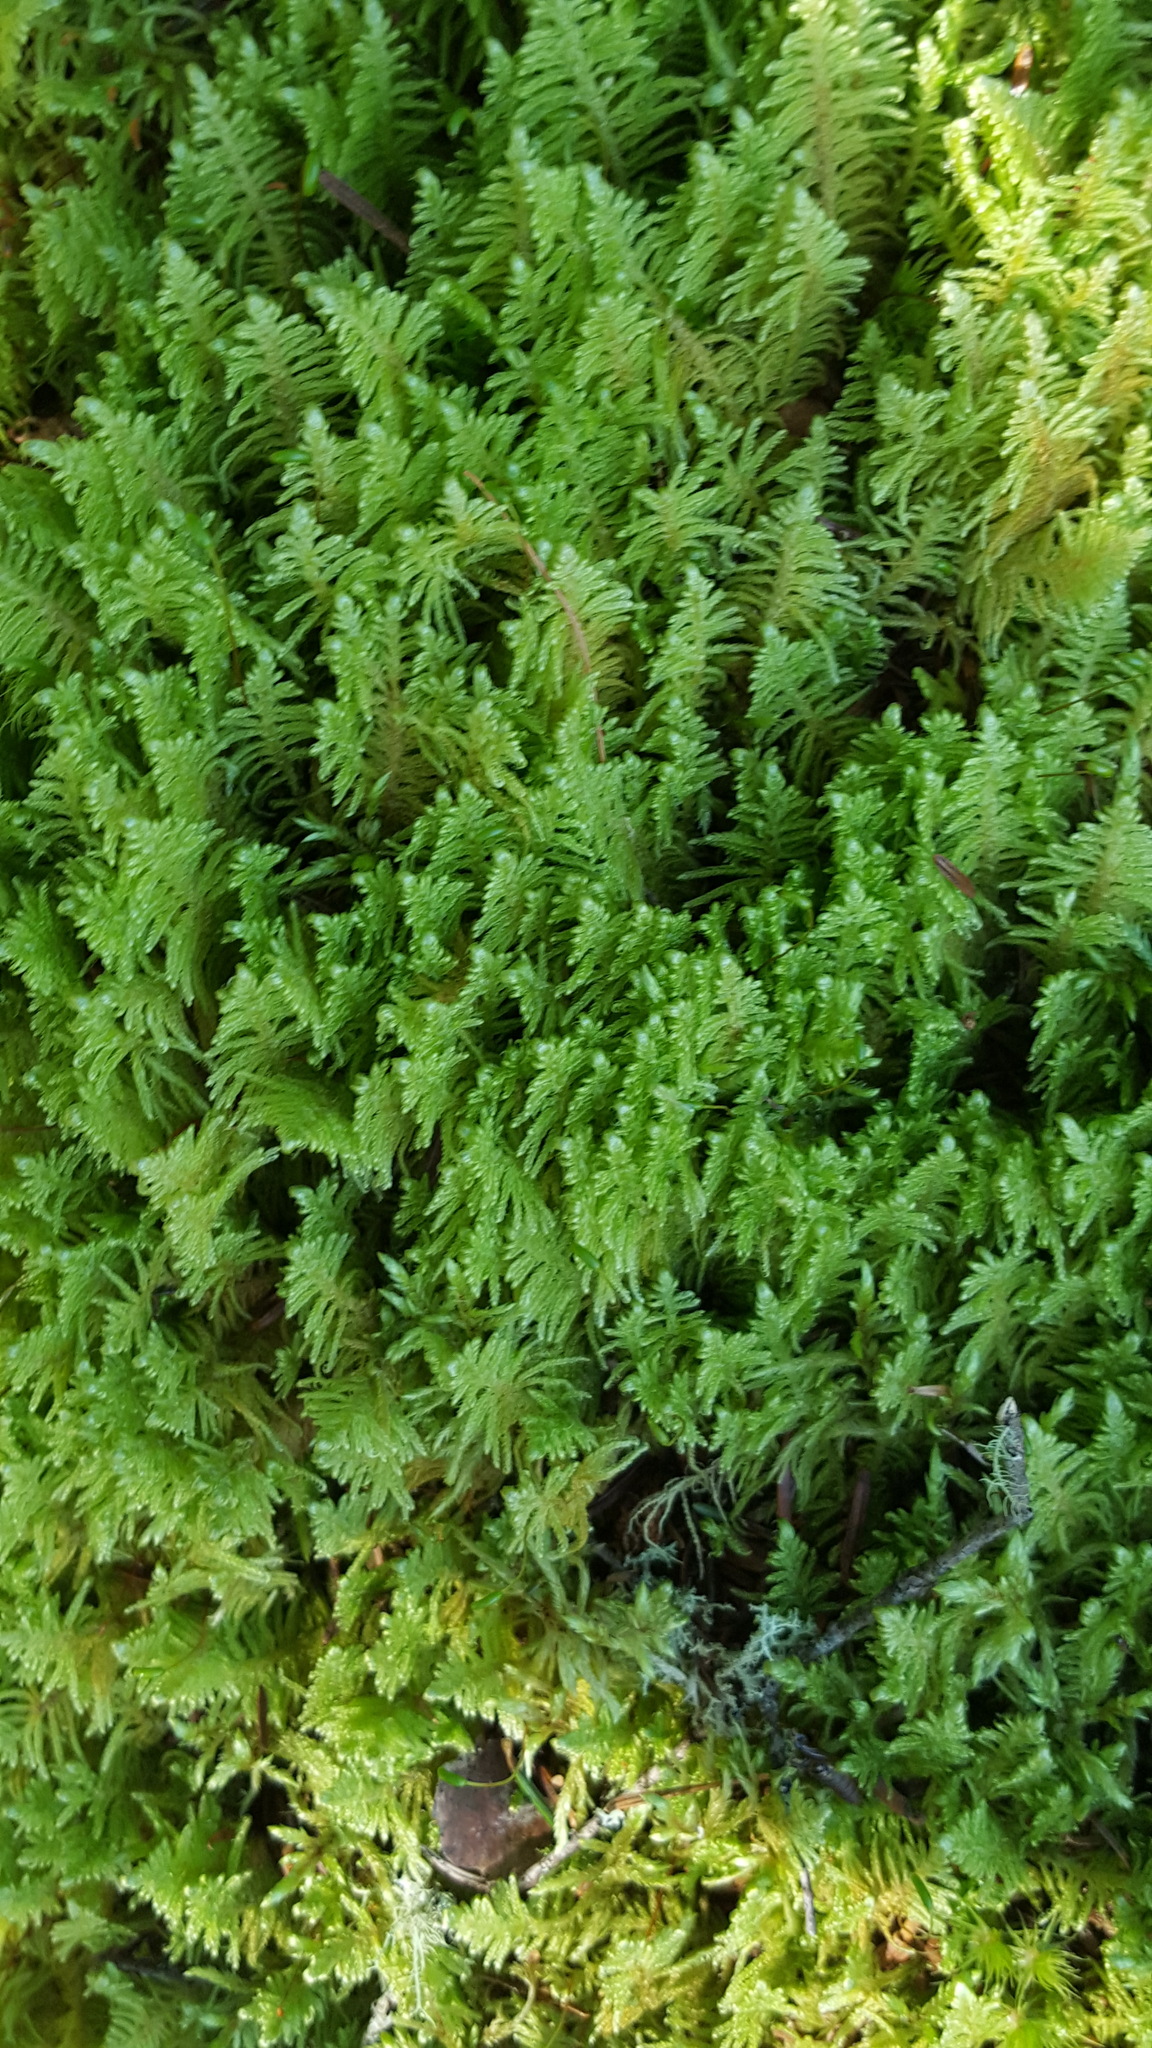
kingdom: Plantae
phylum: Bryophyta
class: Bryopsida
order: Hypnales
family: Pylaisiaceae
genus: Ptilium
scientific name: Ptilium crista-castrensis
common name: Knight's plume moss
